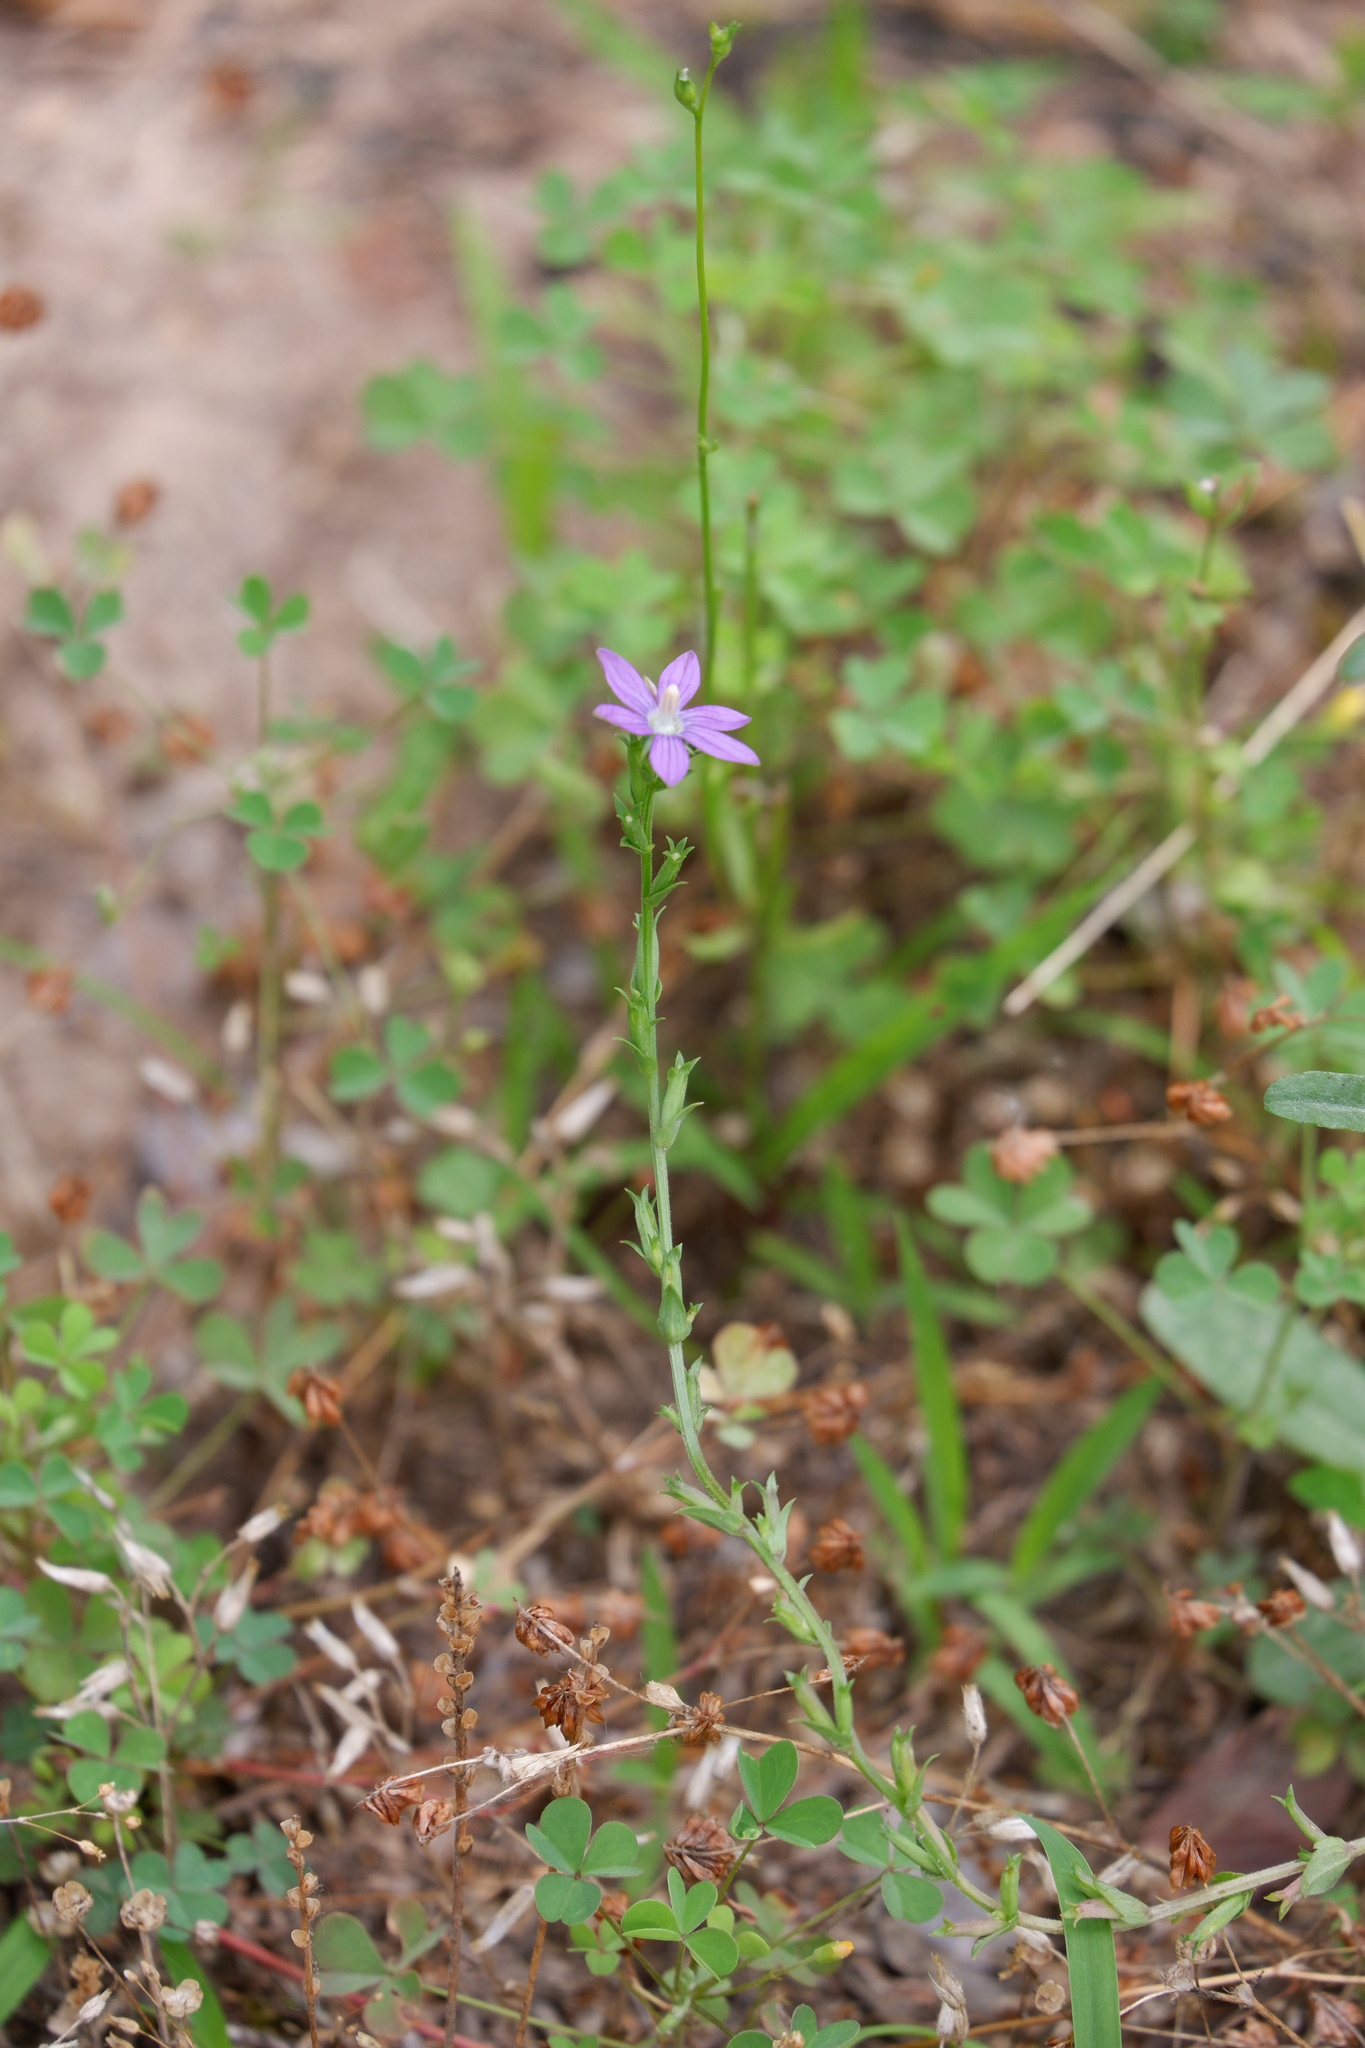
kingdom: Plantae
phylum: Tracheophyta
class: Magnoliopsida
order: Asterales
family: Campanulaceae
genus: Triodanis
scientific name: Triodanis biflora
